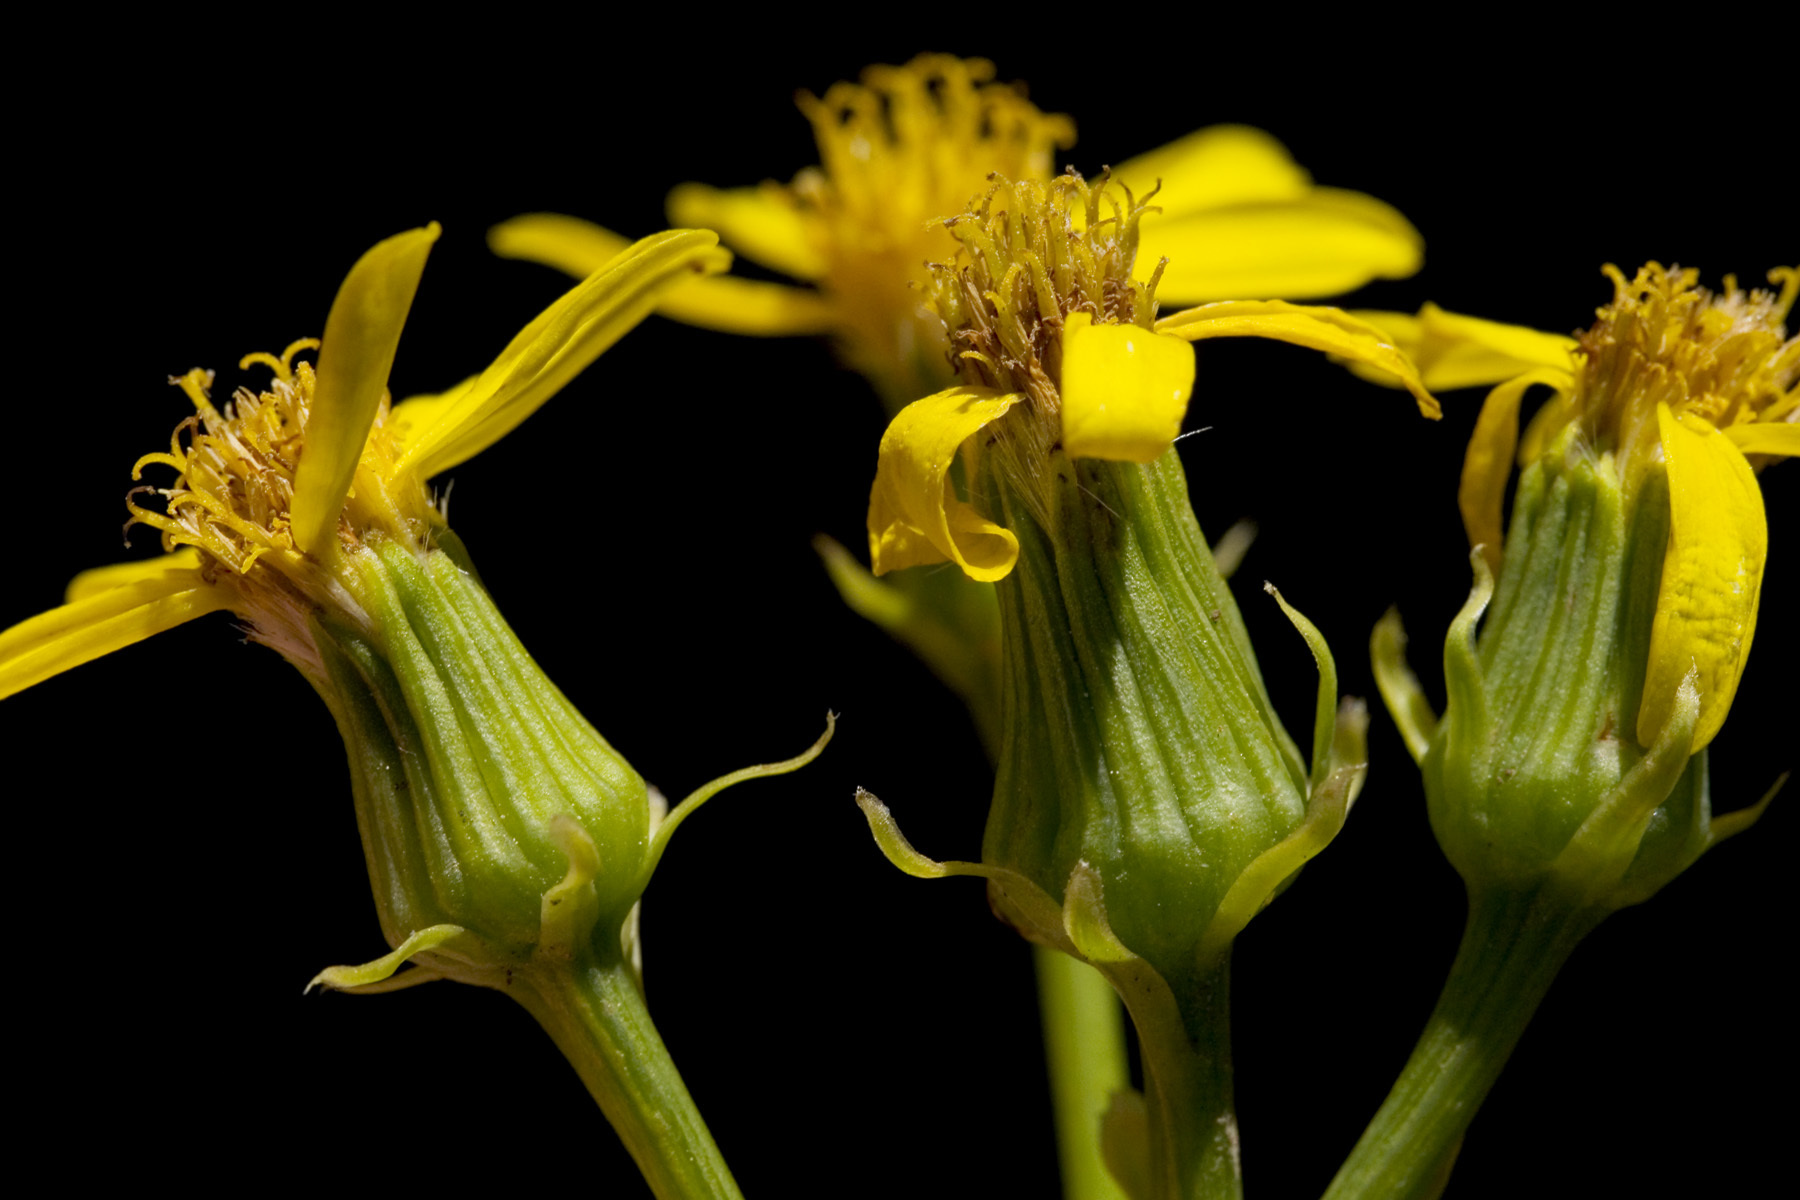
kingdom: Plantae
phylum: Tracheophyta
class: Magnoliopsida
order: Asterales
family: Asteraceae
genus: Senecio
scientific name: Senecio wootonii
